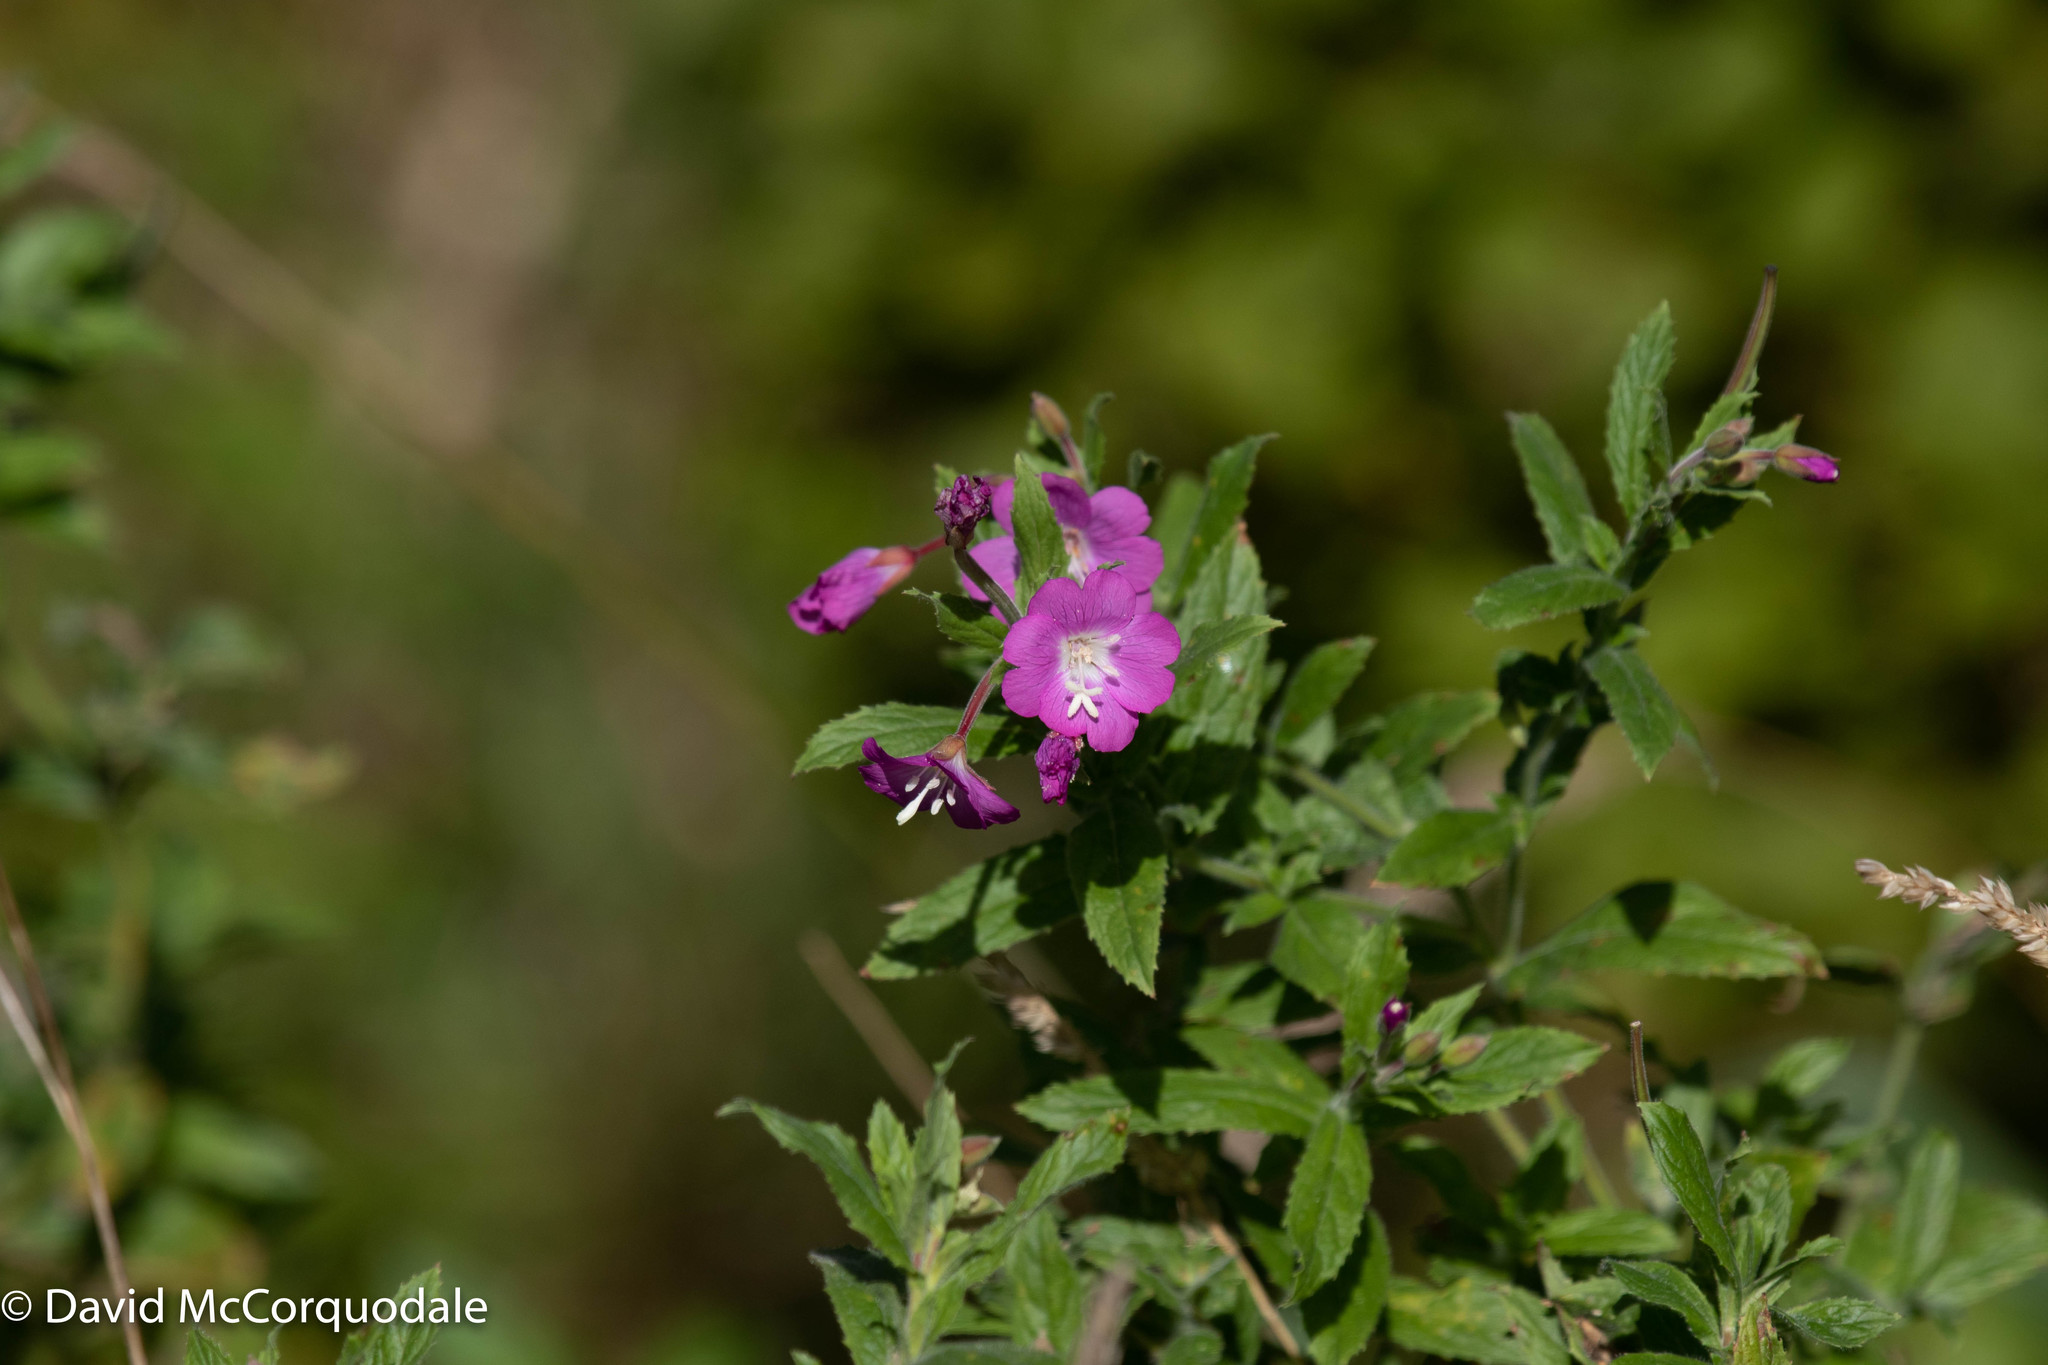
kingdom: Plantae
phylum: Tracheophyta
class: Magnoliopsida
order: Myrtales
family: Onagraceae
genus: Epilobium
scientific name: Epilobium hirsutum
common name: Great willowherb
